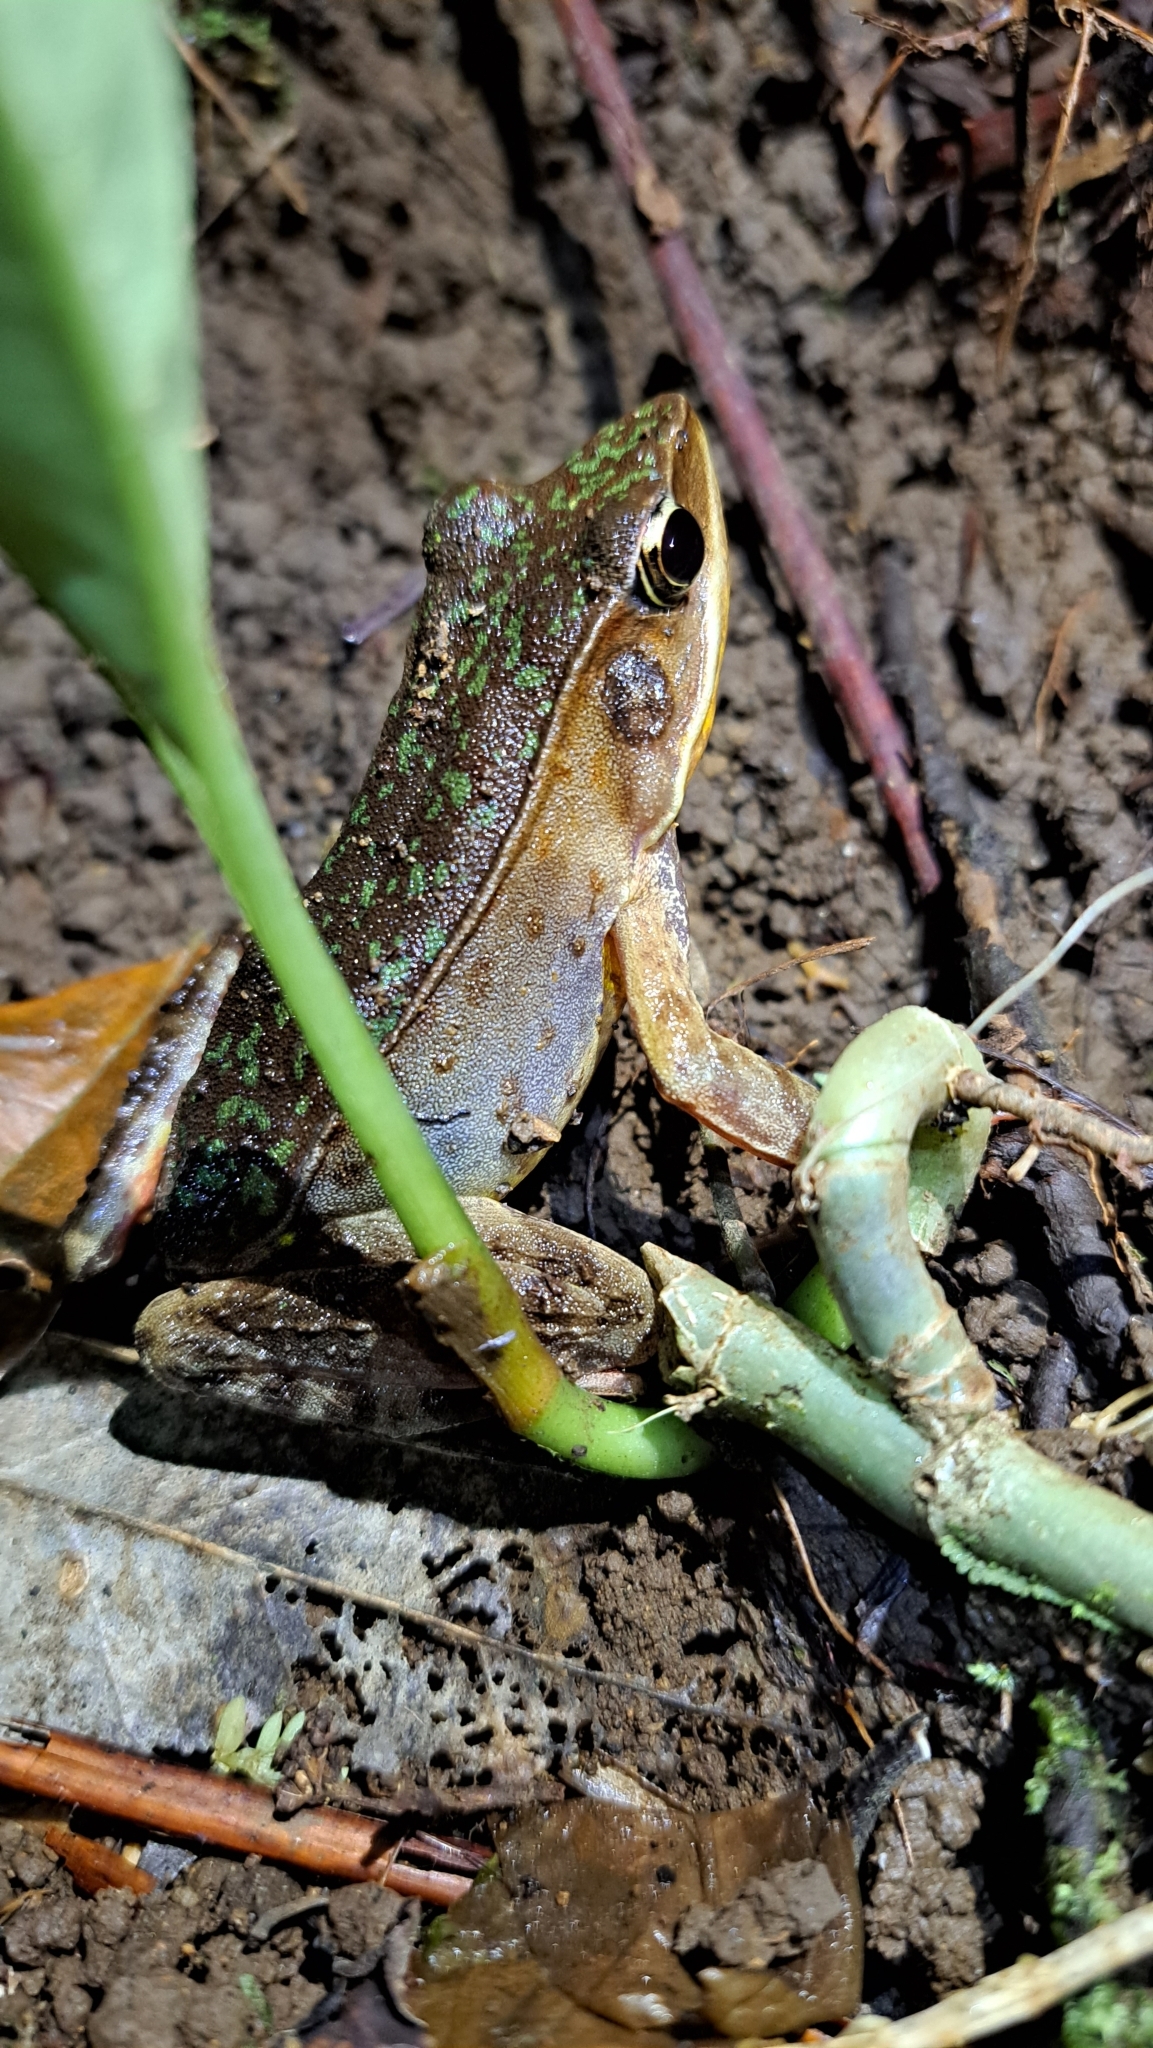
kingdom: Animalia
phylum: Chordata
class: Amphibia
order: Anura
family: Ranidae
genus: Lithobates
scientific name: Lithobates warszewitschii
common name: Warszewitsch's frog
